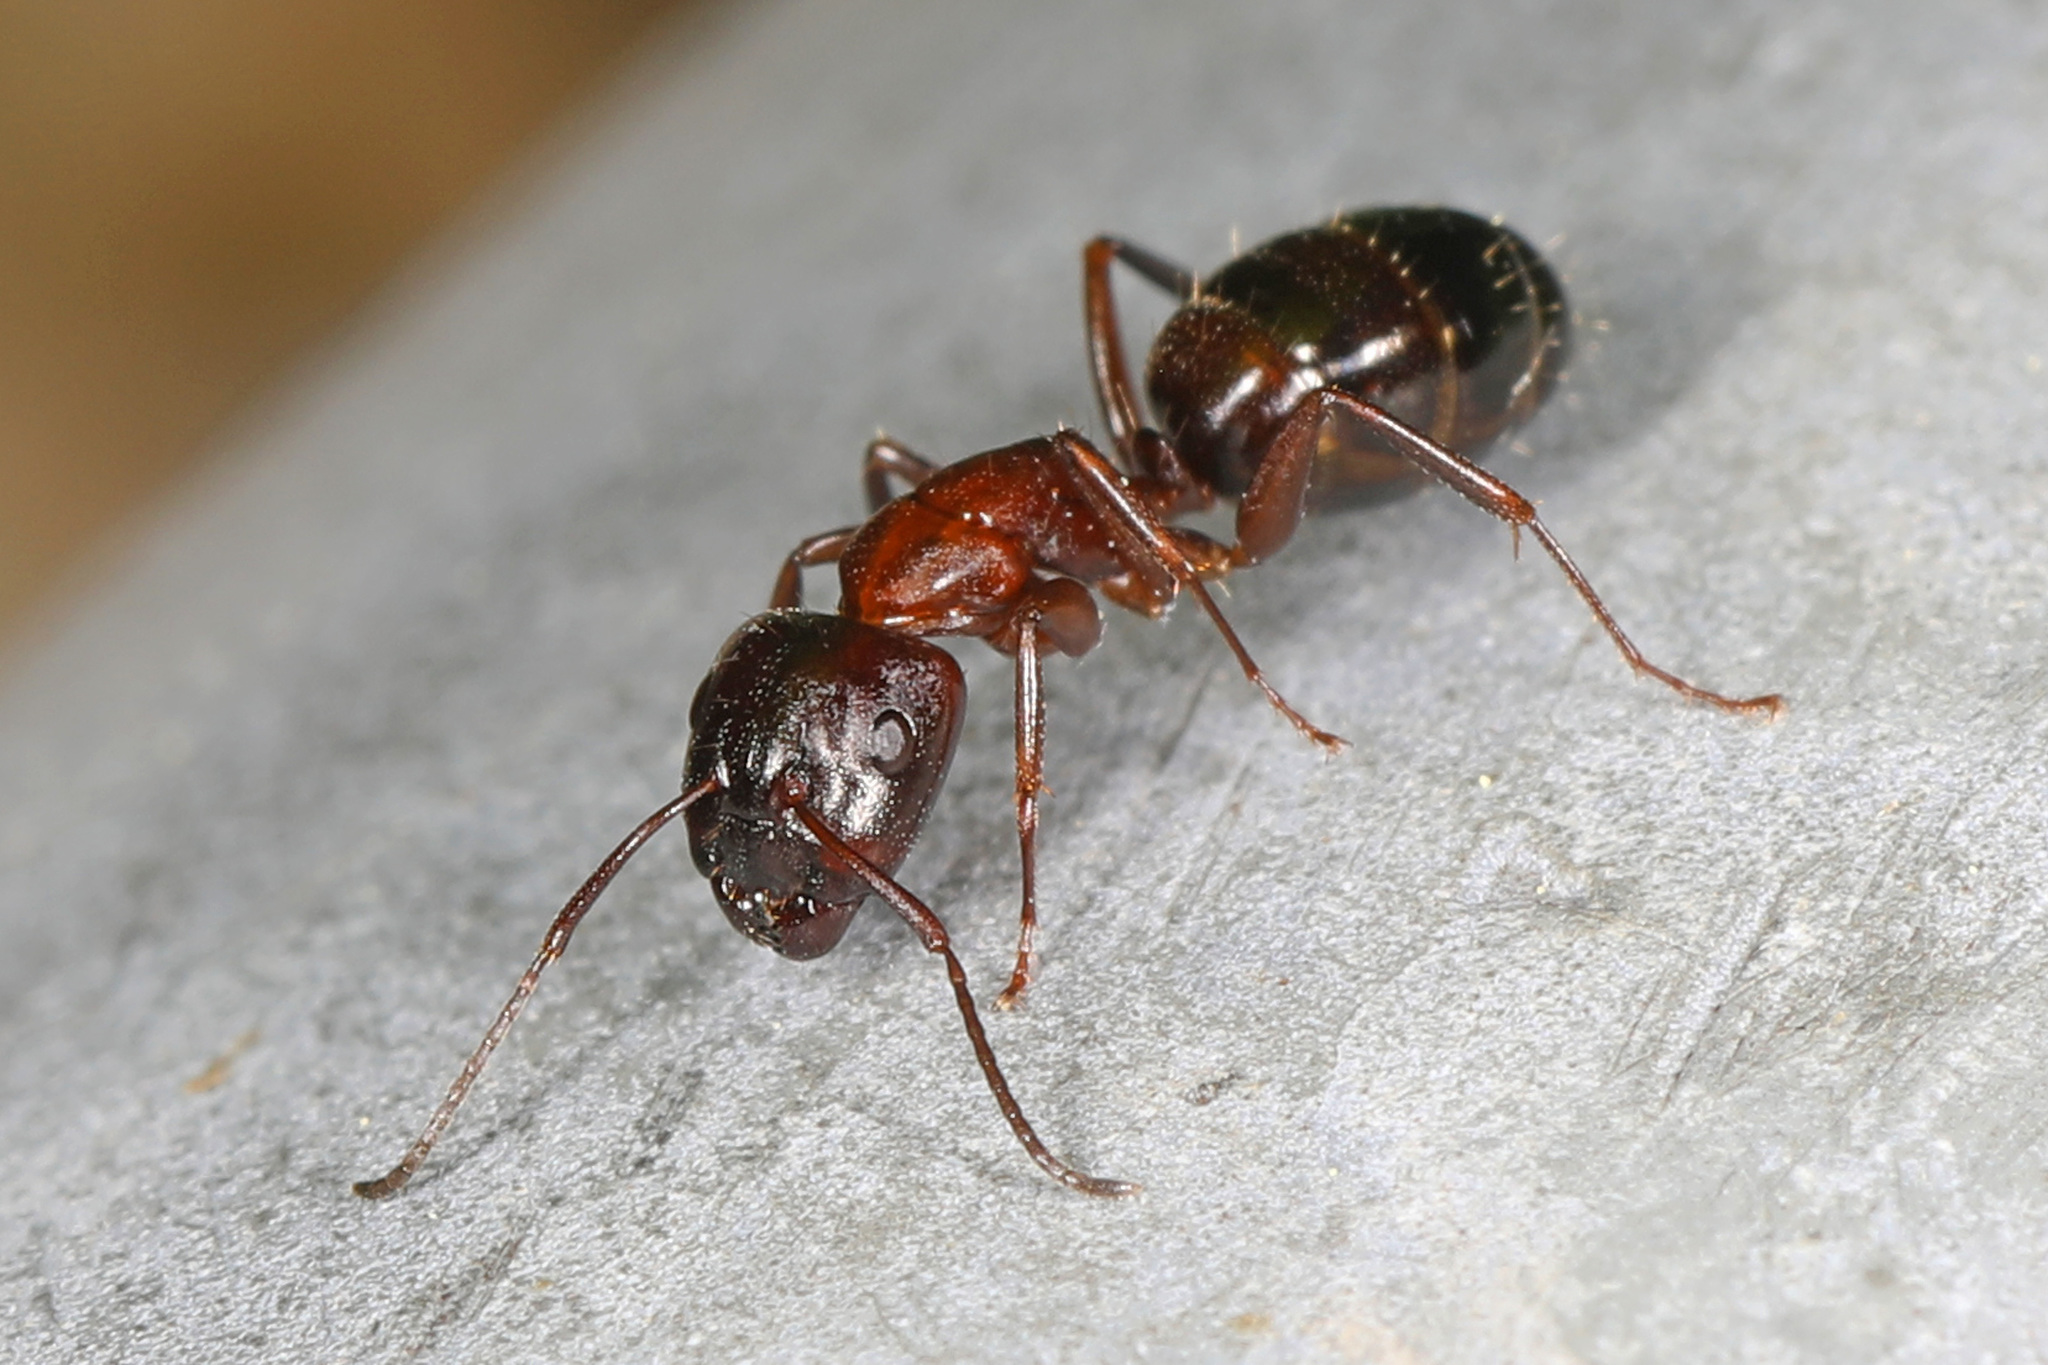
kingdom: Animalia
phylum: Arthropoda
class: Insecta
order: Hymenoptera
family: Formicidae
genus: Camponotus
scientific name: Camponotus nearcticus
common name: Smaller carpenter ant
